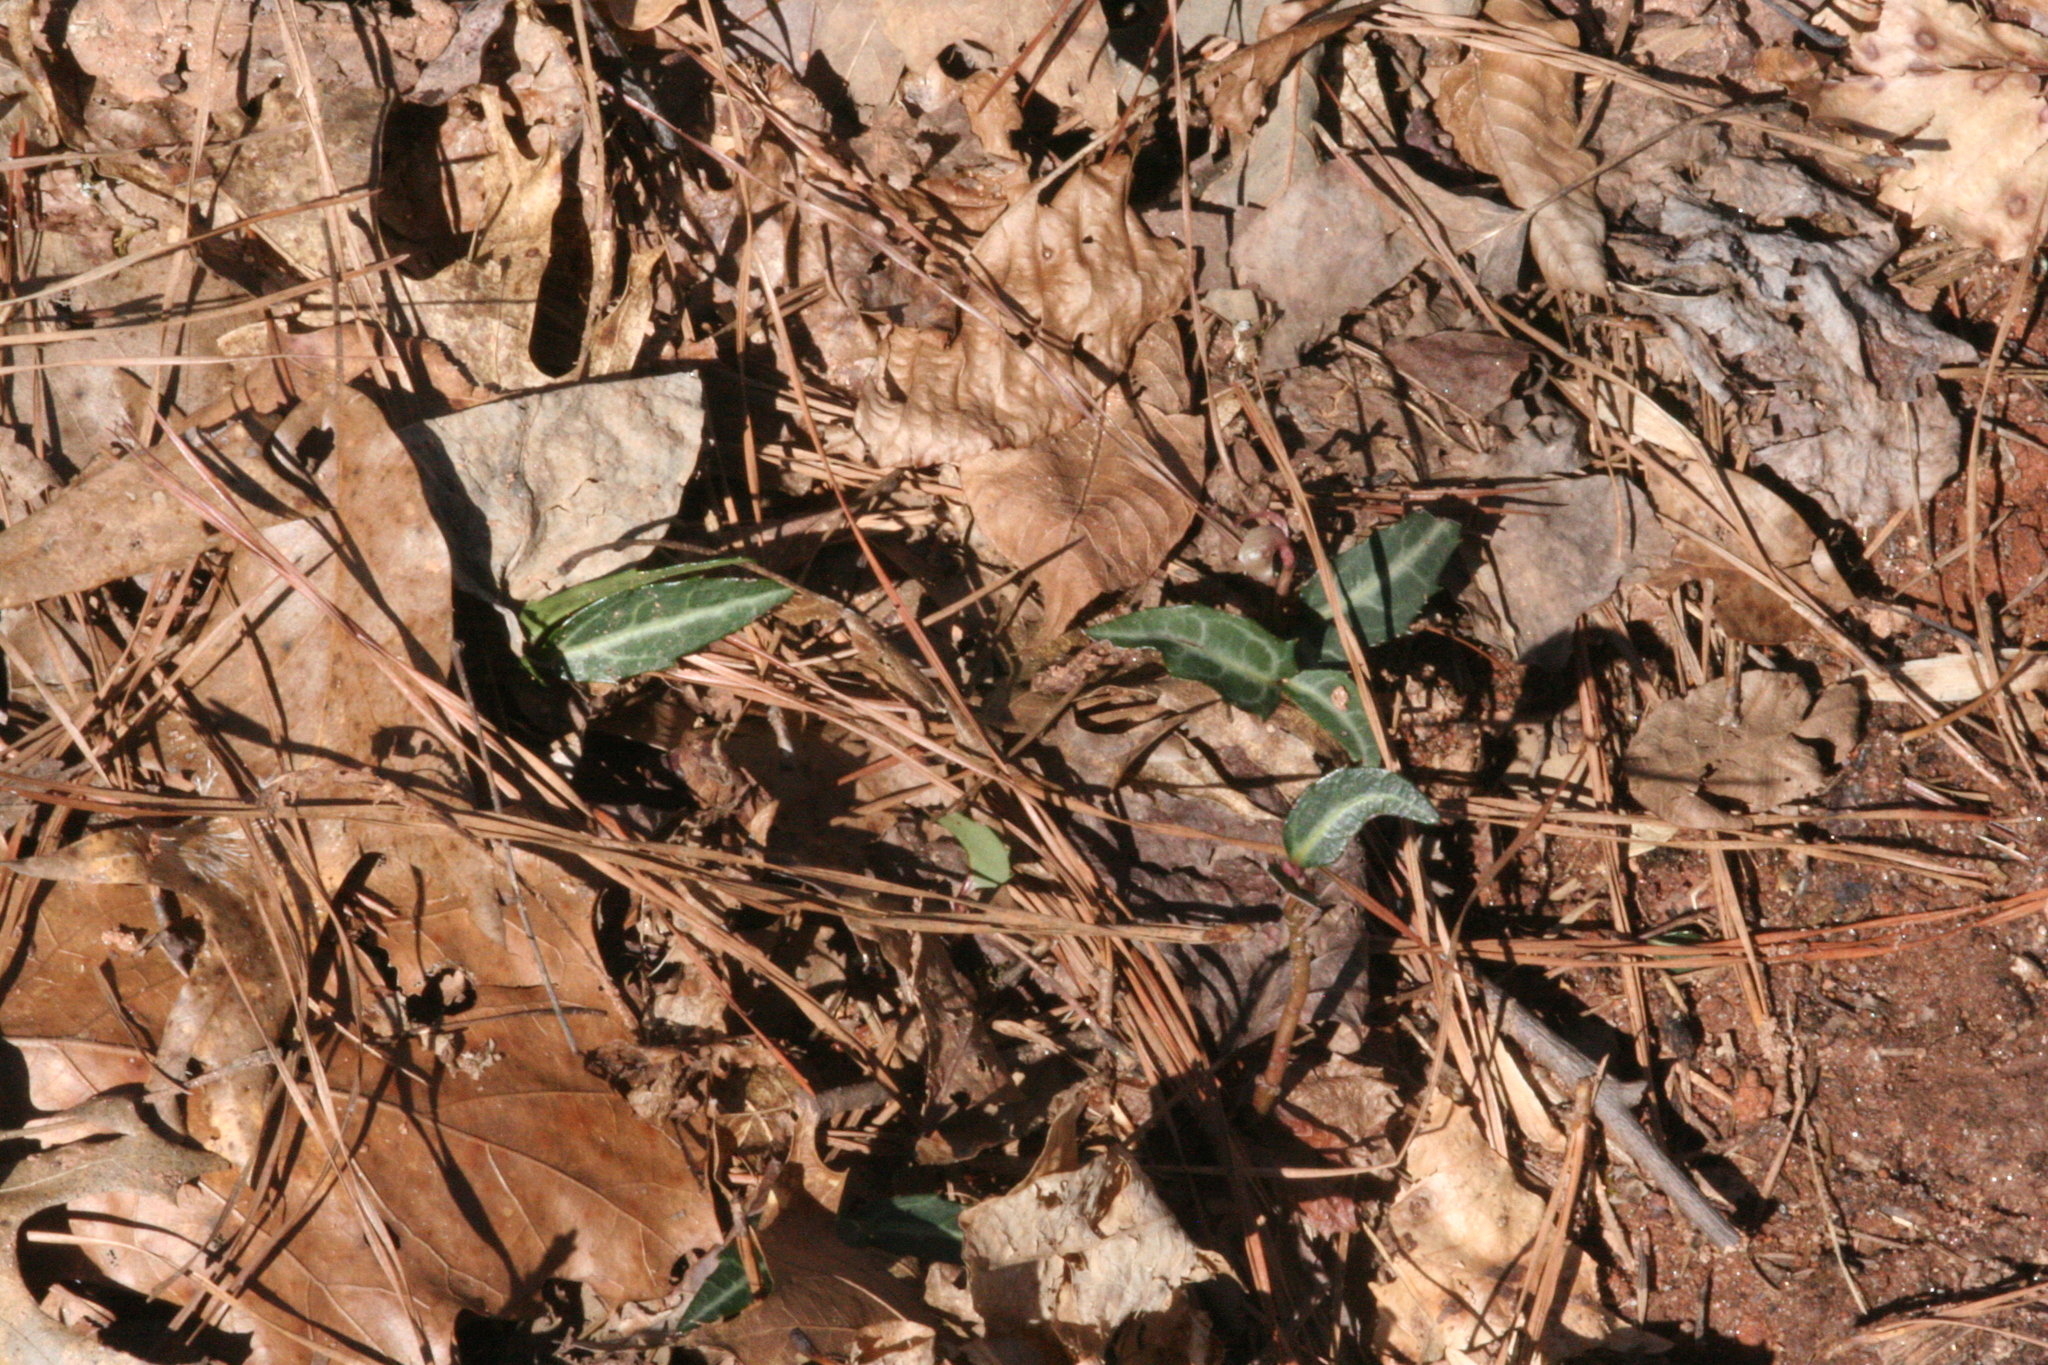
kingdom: Plantae
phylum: Tracheophyta
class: Magnoliopsida
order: Ericales
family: Ericaceae
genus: Chimaphila
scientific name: Chimaphila maculata
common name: Spotted pipsissewa
